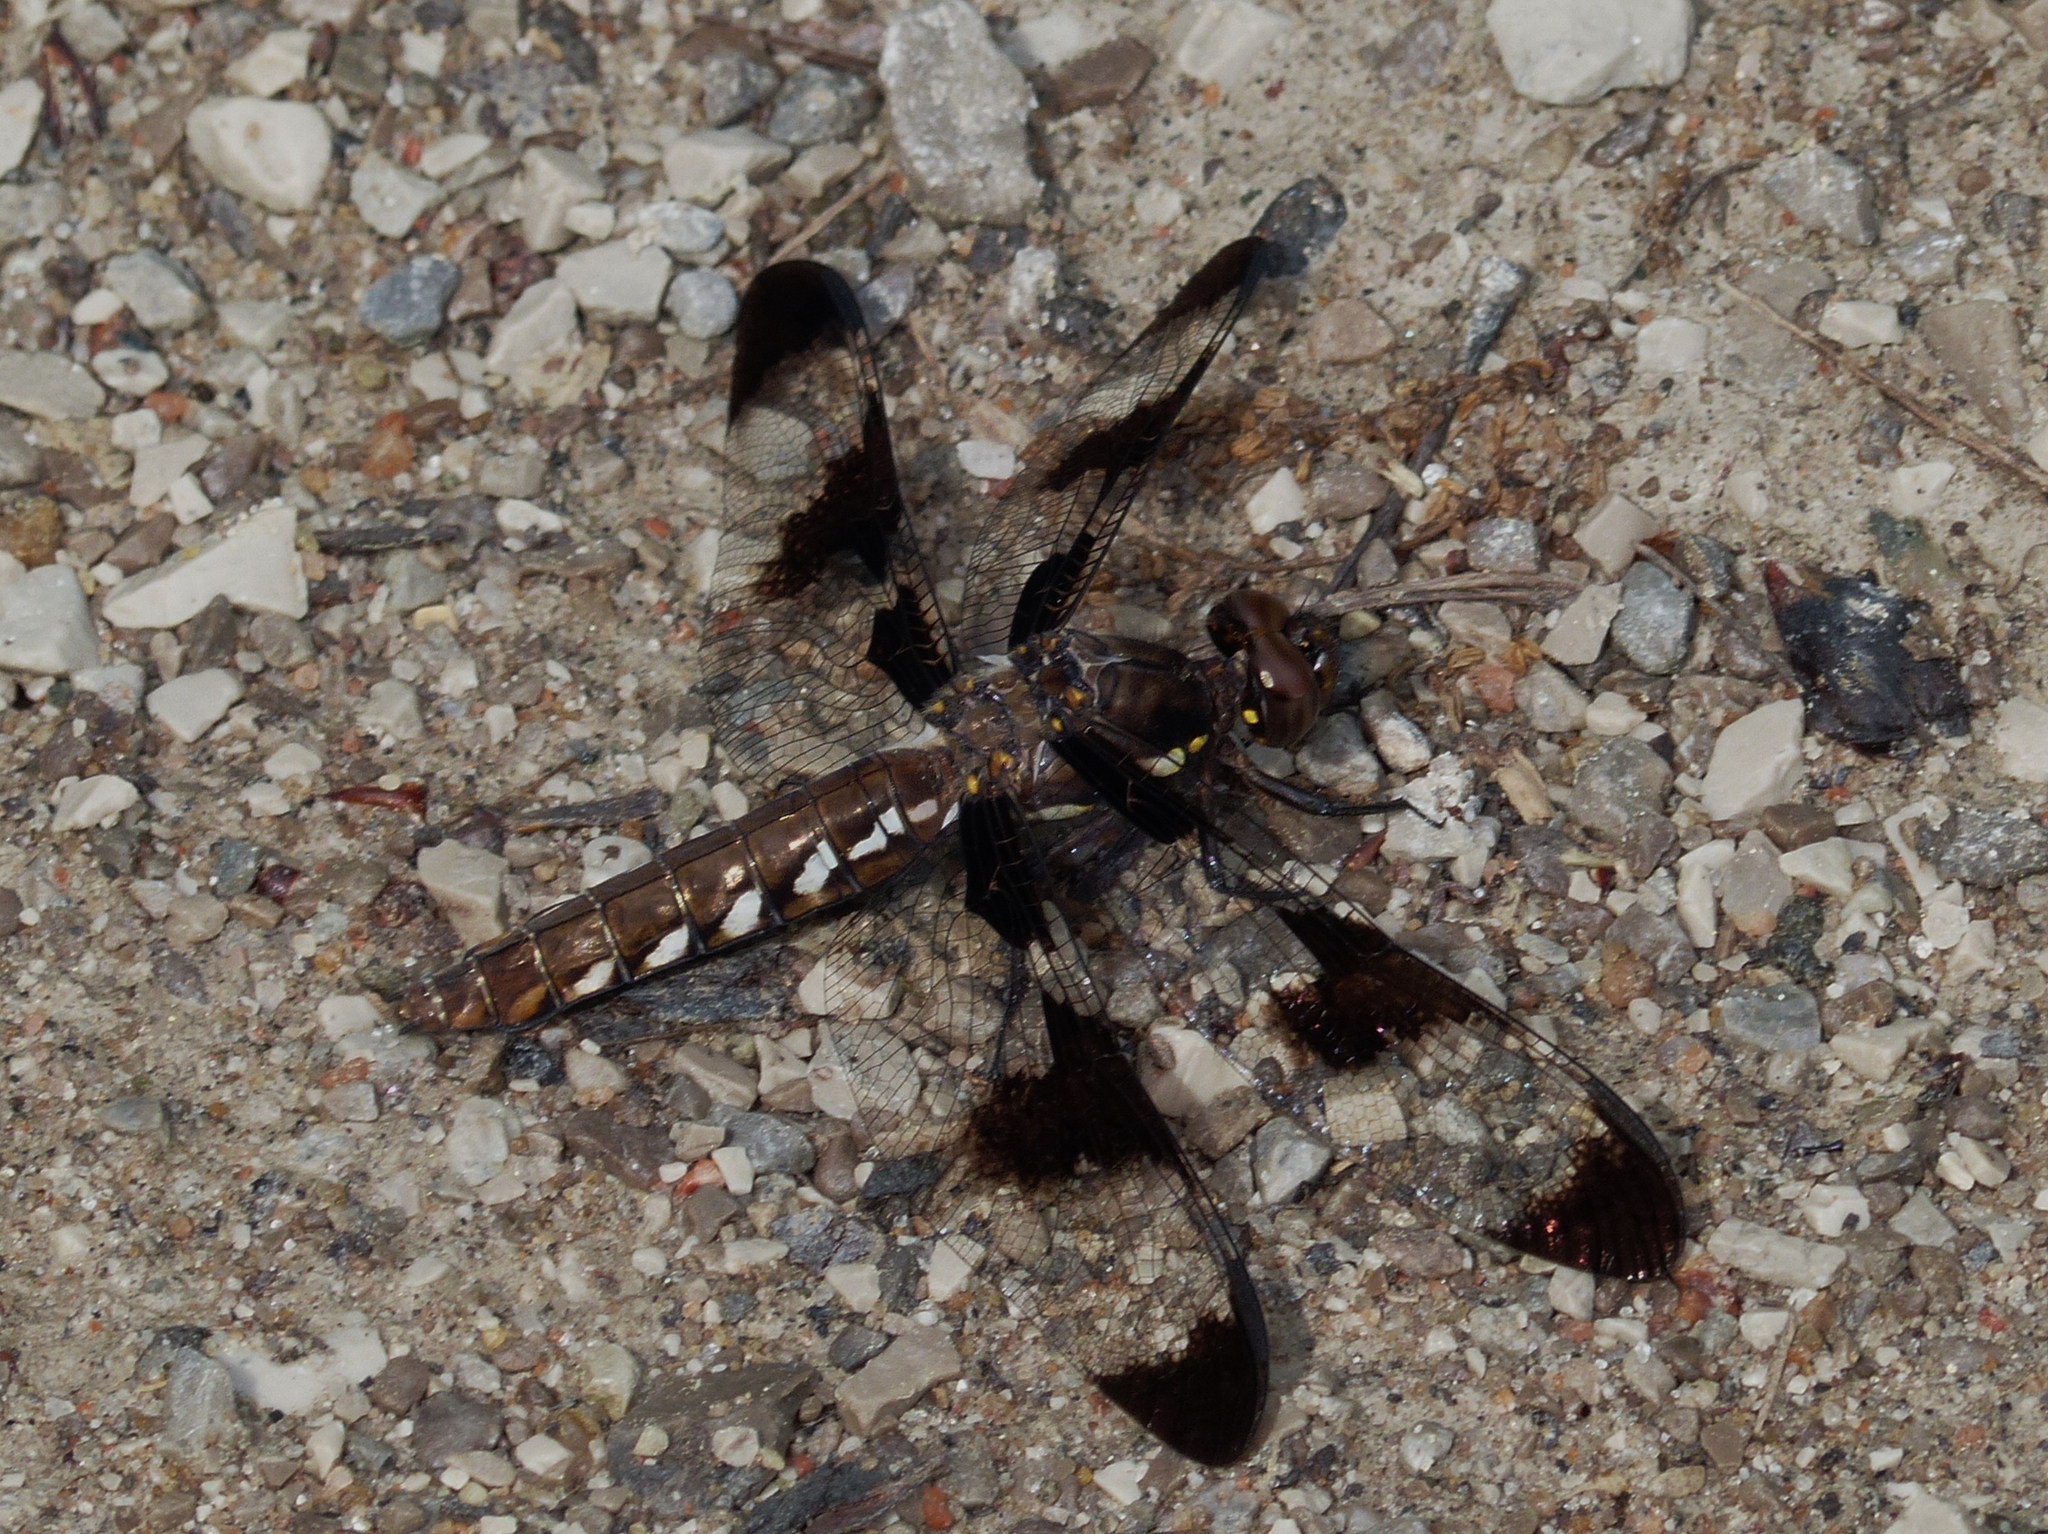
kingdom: Animalia
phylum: Arthropoda
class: Insecta
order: Odonata
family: Libellulidae
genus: Plathemis
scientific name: Plathemis lydia
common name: Common whitetail
